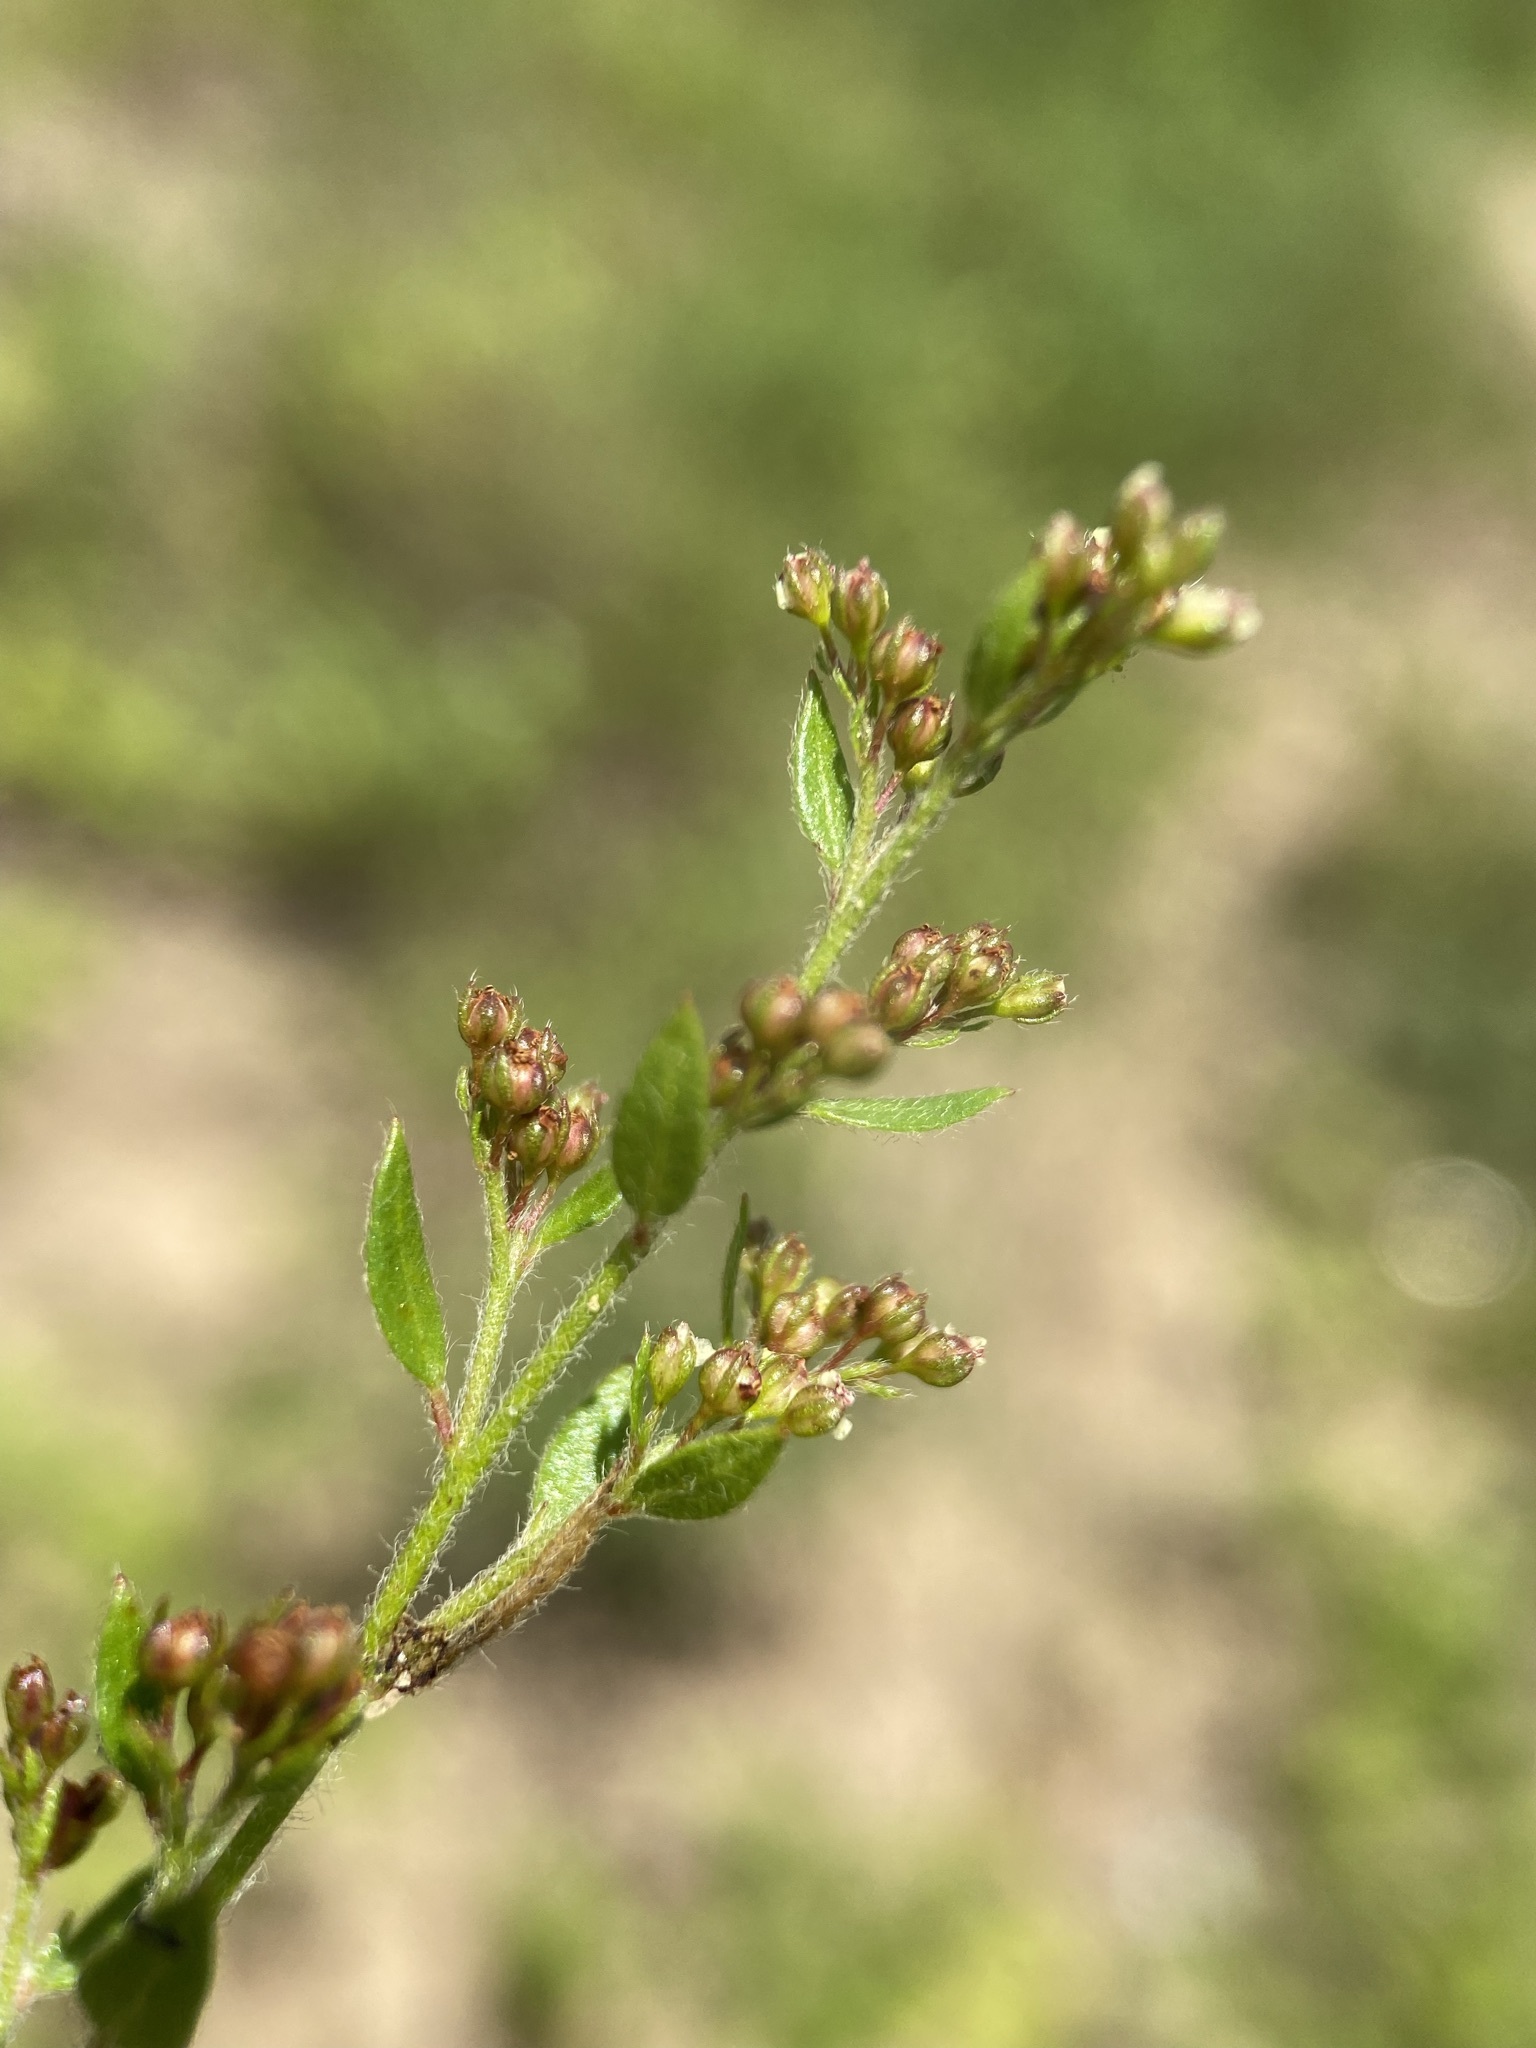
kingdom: Plantae
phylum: Tracheophyta
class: Magnoliopsida
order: Malvales
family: Cistaceae
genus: Lechea
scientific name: Lechea mucronata
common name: Hairy pinweed
